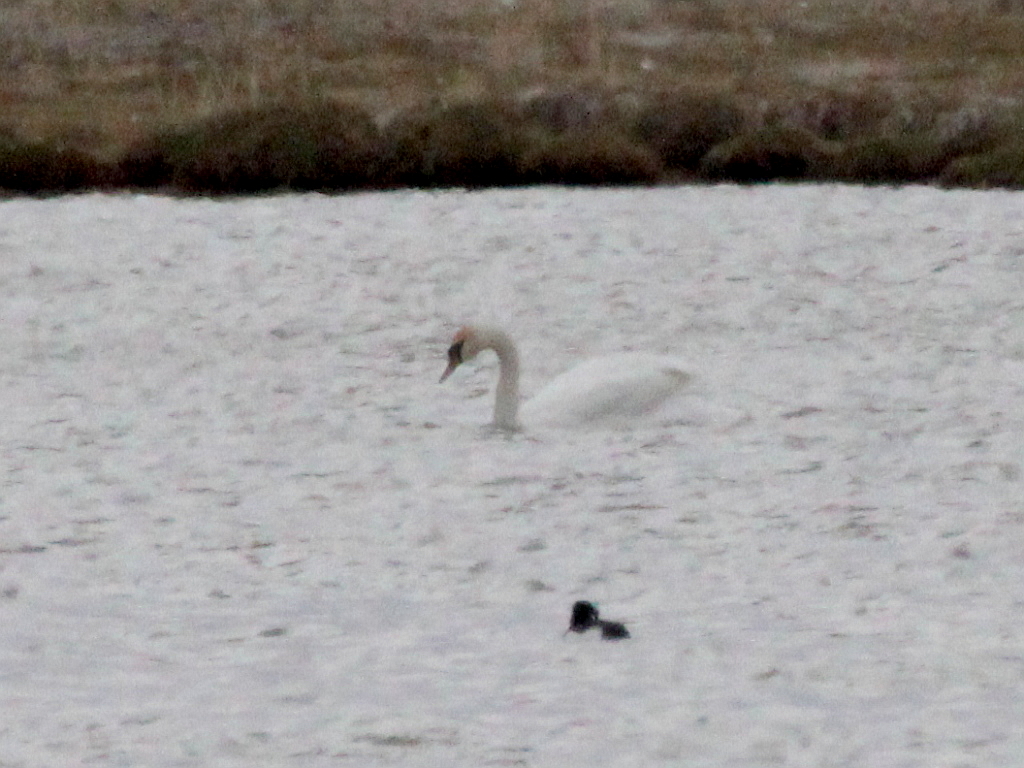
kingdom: Animalia
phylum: Chordata
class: Aves
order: Anseriformes
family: Anatidae
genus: Cygnus
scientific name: Cygnus olor
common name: Mute swan
